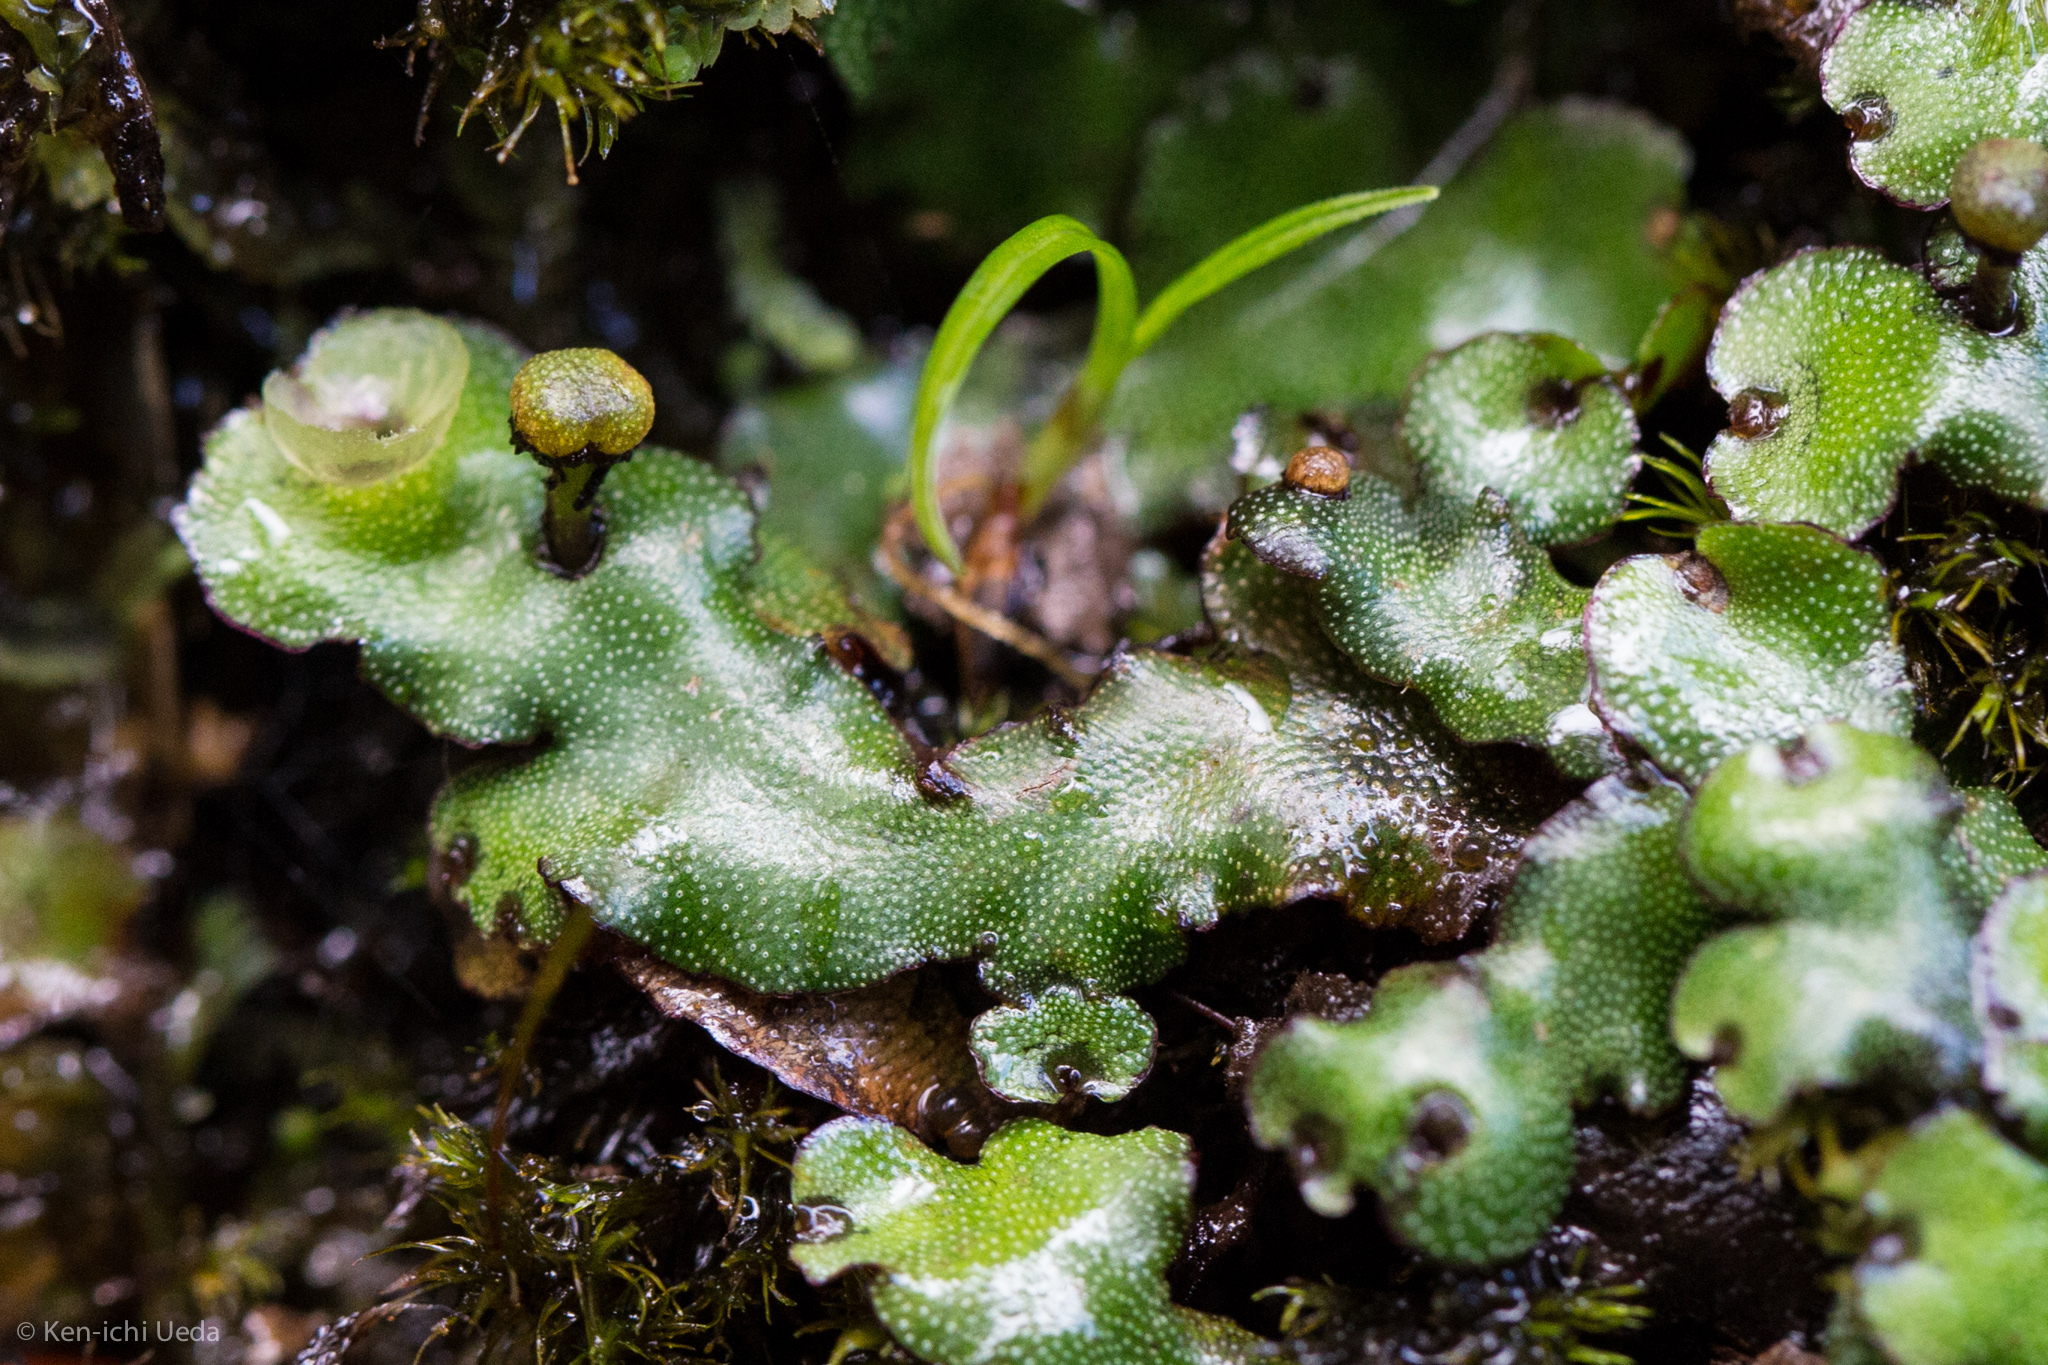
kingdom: Plantae
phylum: Marchantiophyta
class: Marchantiopsida
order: Marchantiales
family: Marchantiaceae
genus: Marchantia
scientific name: Marchantia foliacea
